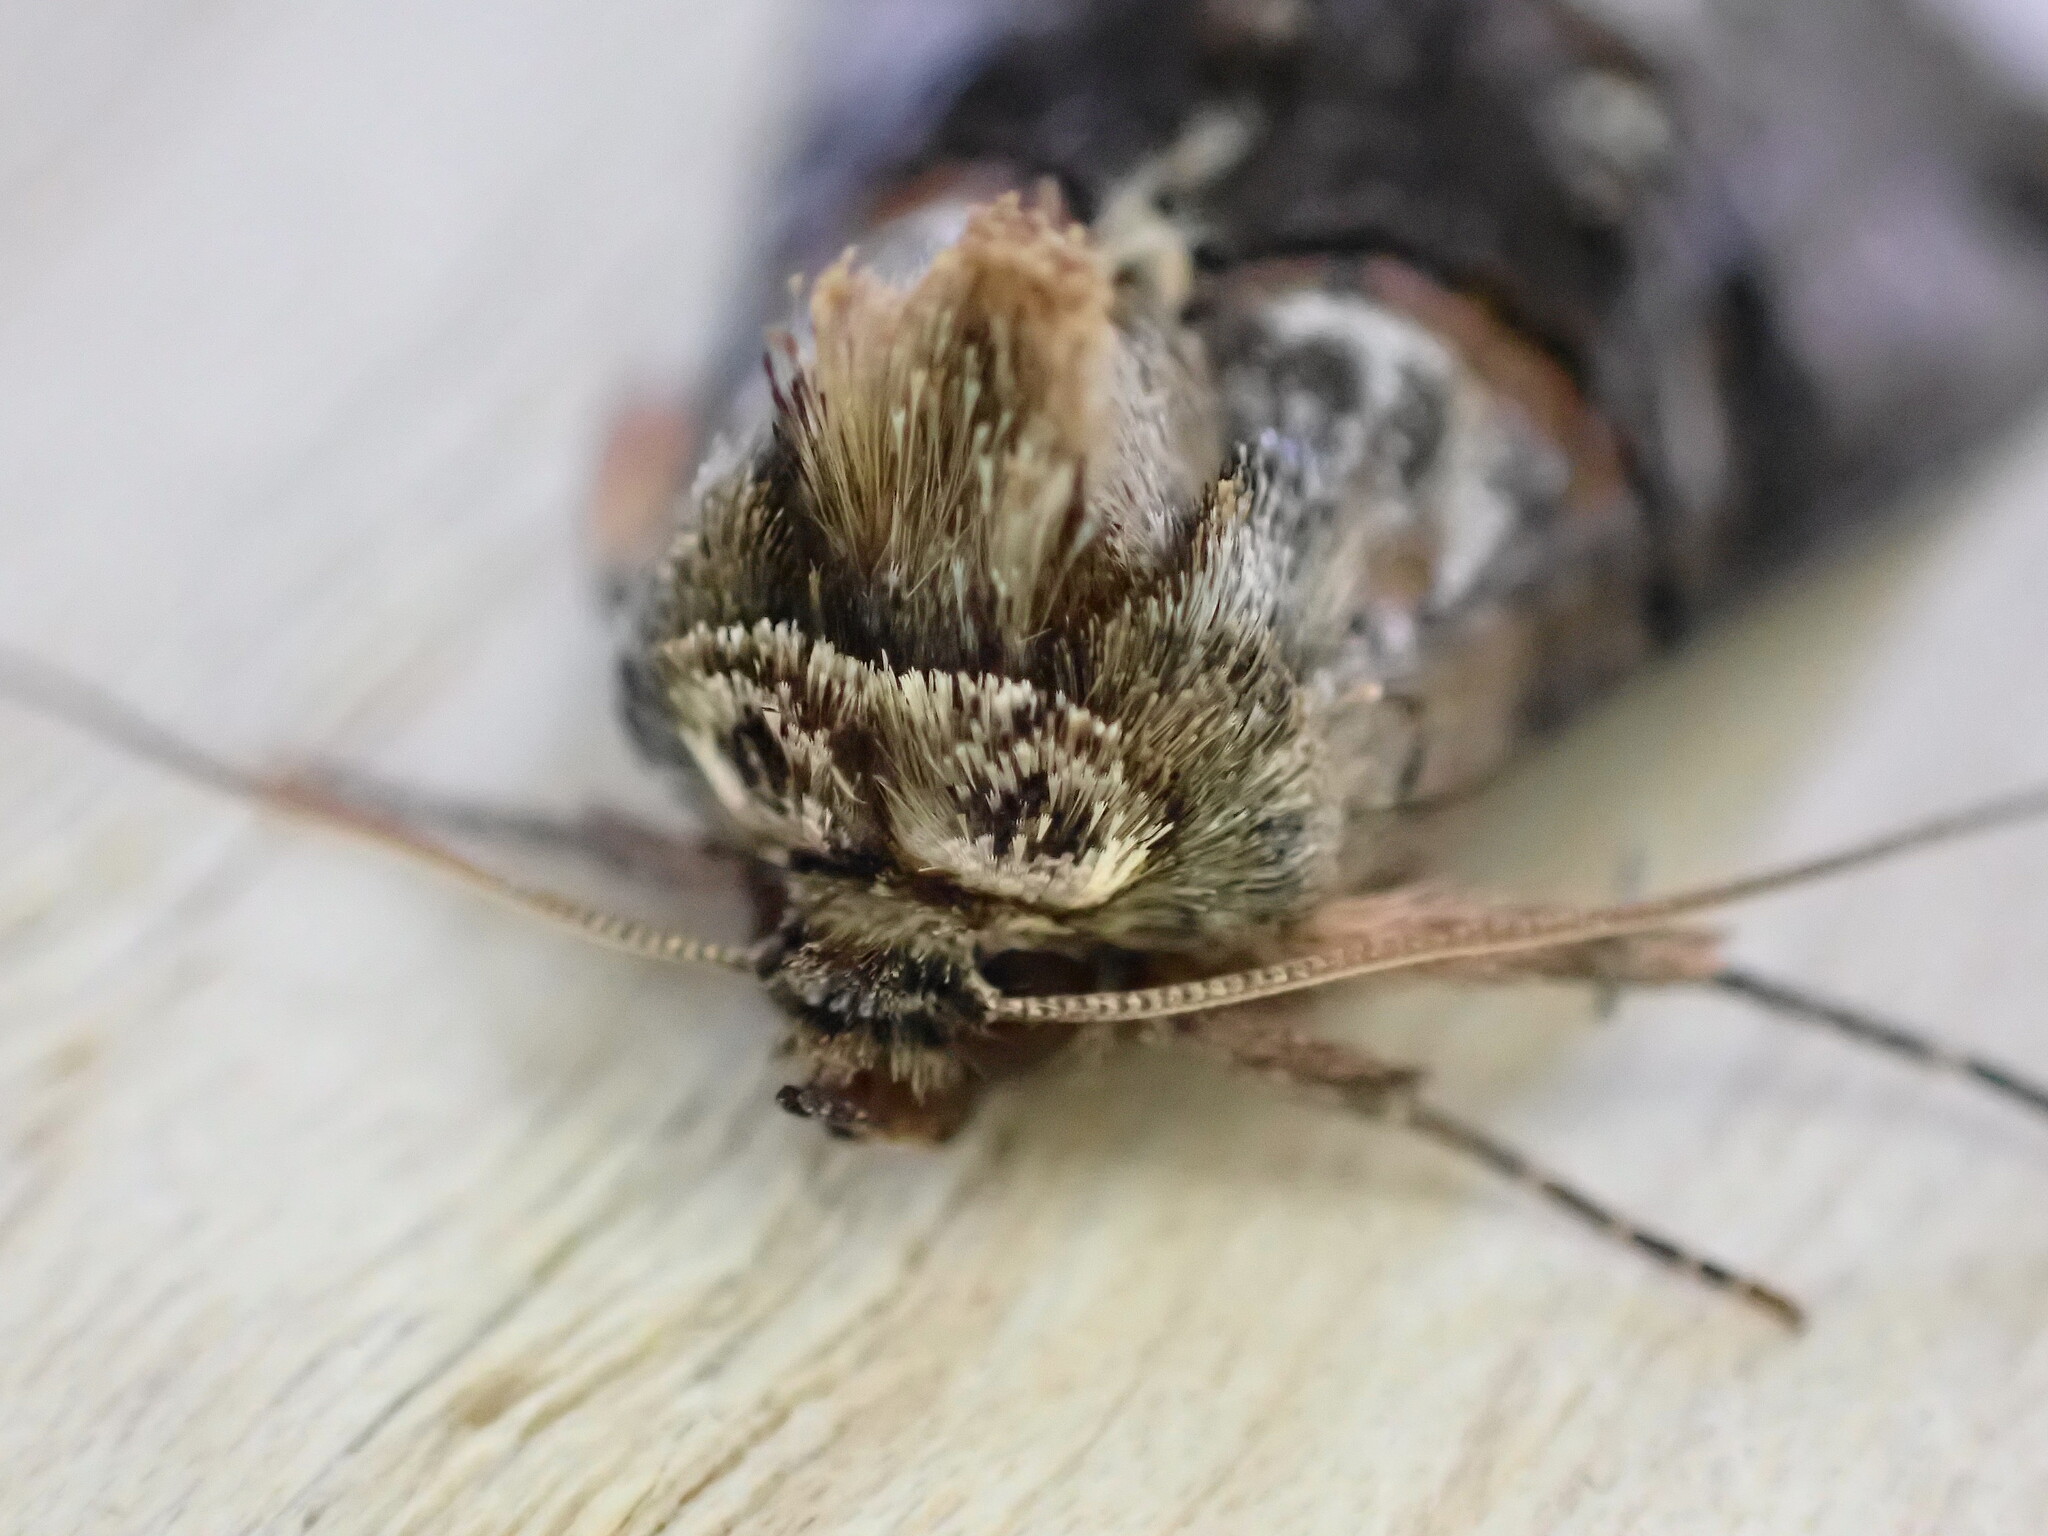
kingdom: Animalia
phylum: Arthropoda
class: Insecta
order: Lepidoptera
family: Noctuidae
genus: Abrostola
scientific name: Abrostola tripartita
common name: Spectacle
